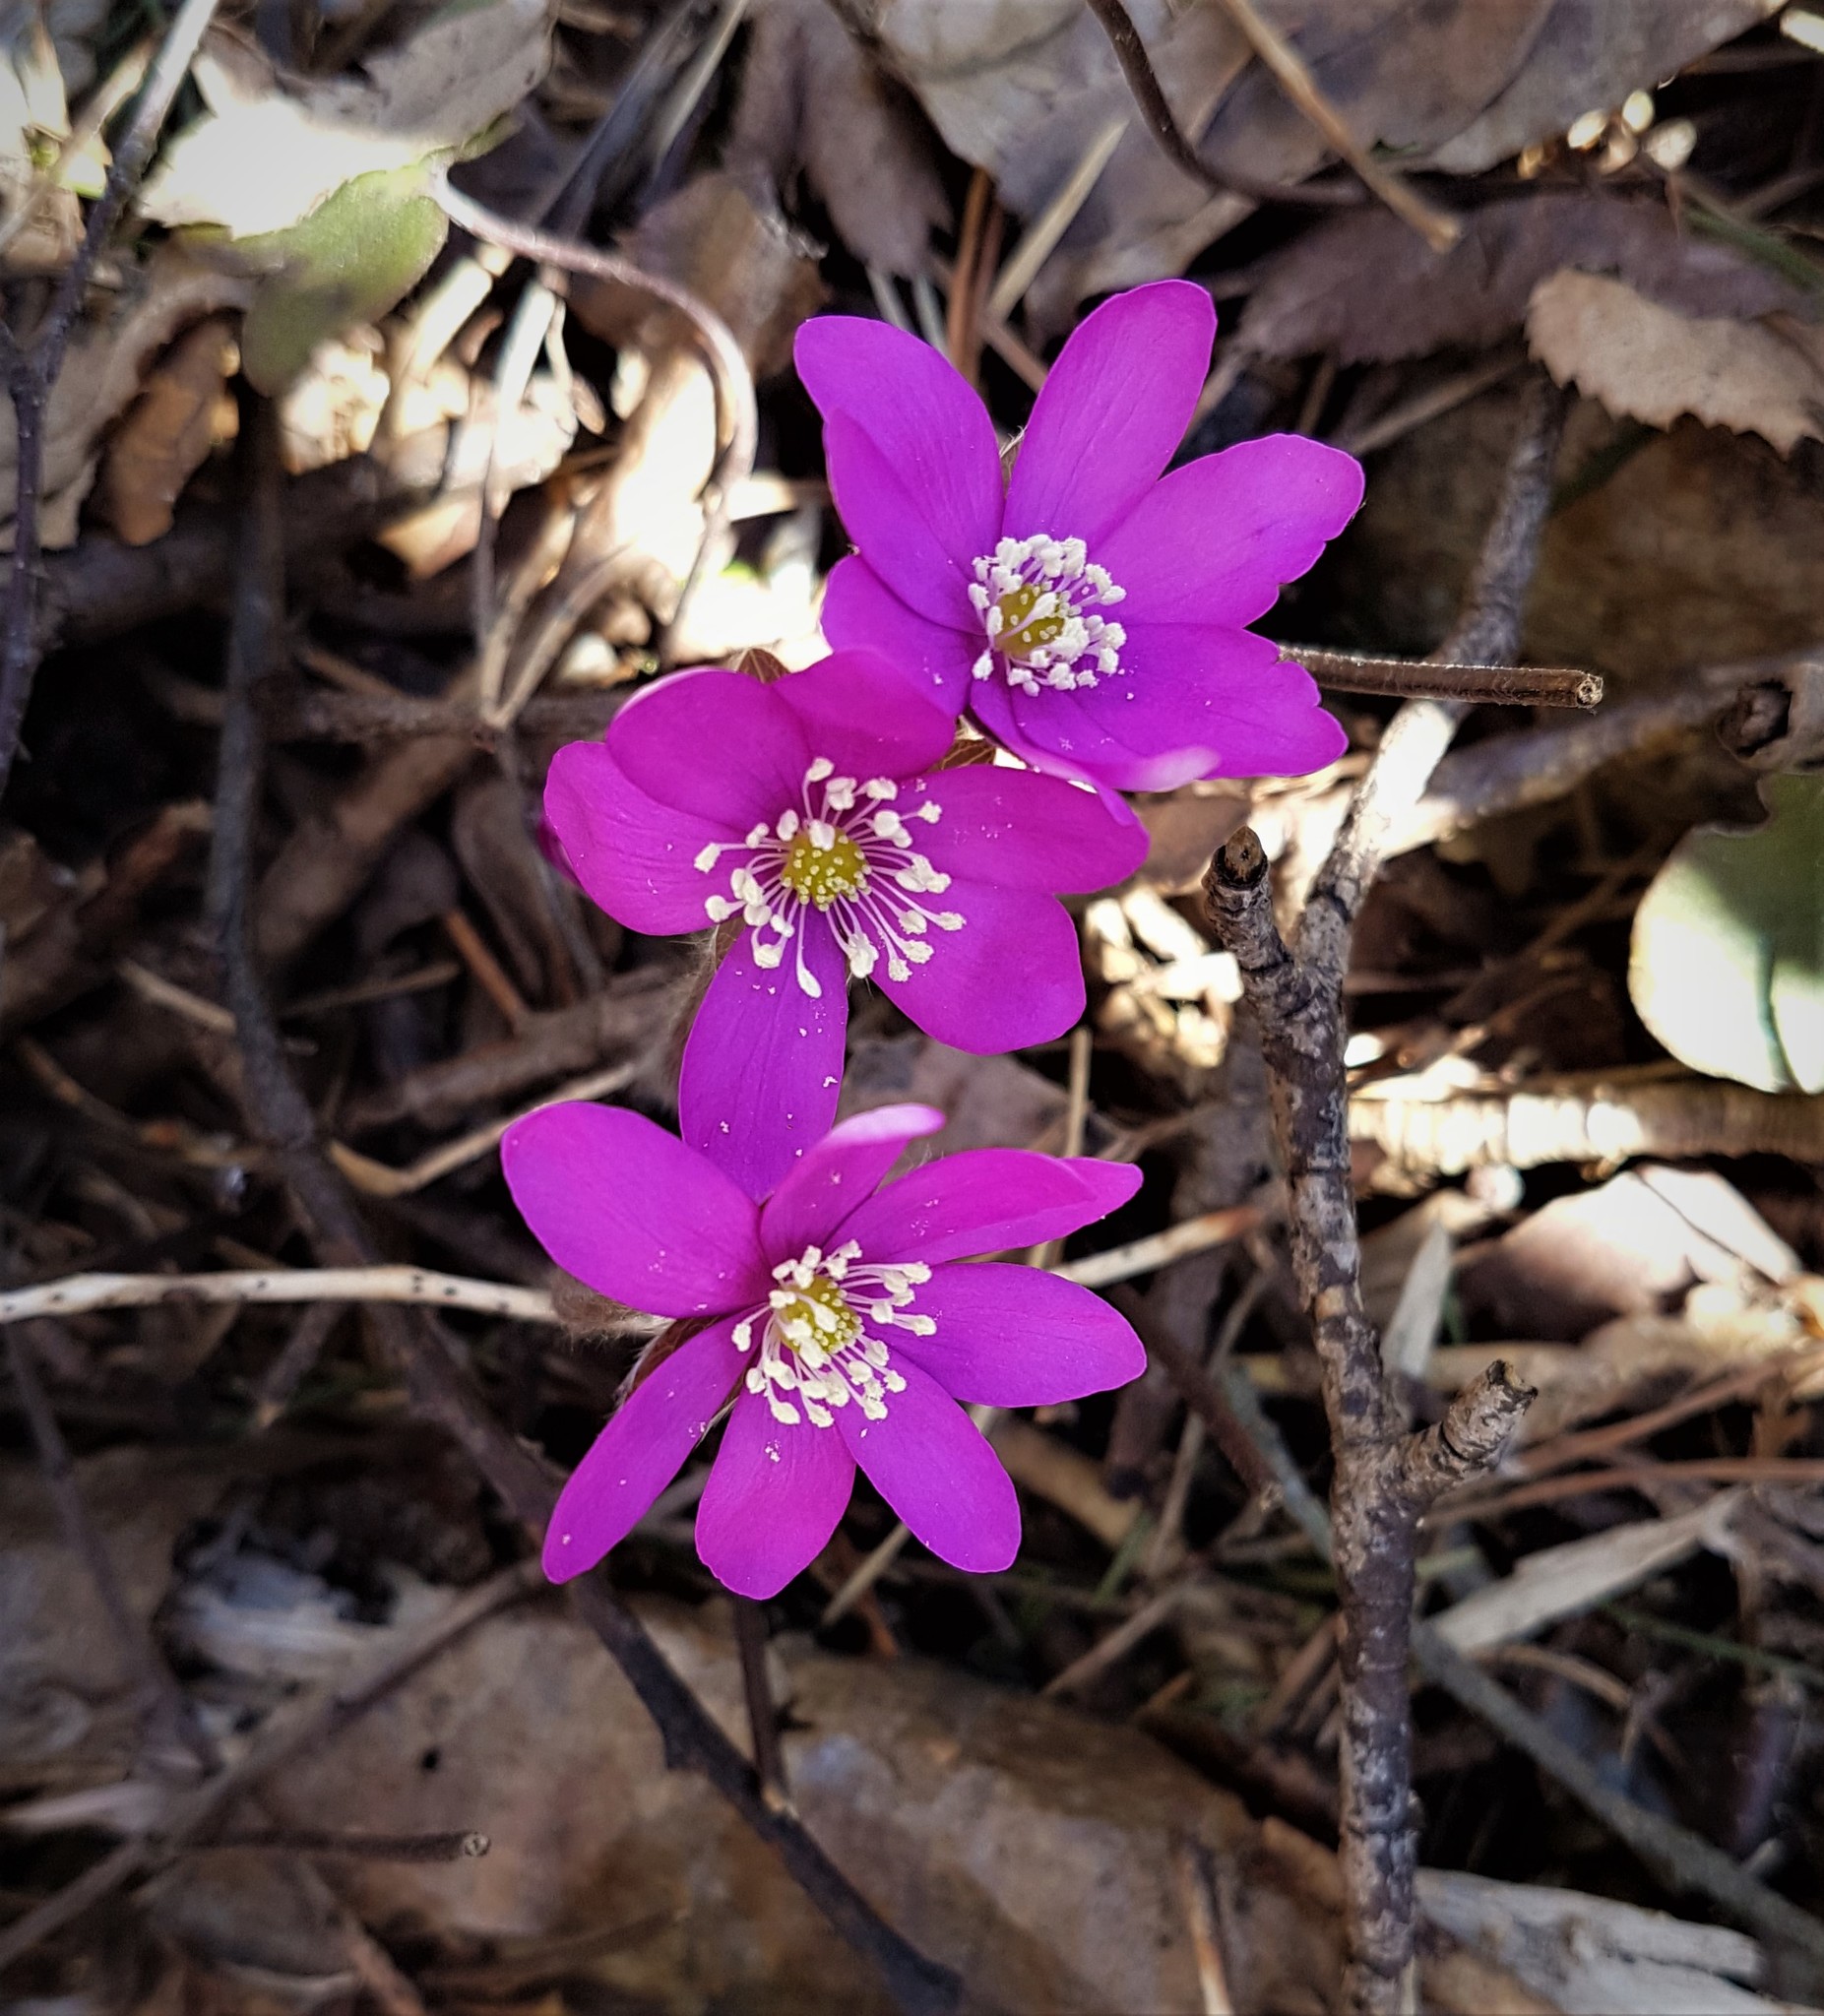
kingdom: Plantae
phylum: Tracheophyta
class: Magnoliopsida
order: Ranunculales
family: Ranunculaceae
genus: Hepatica
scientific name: Hepatica nobilis
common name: Liverleaf
